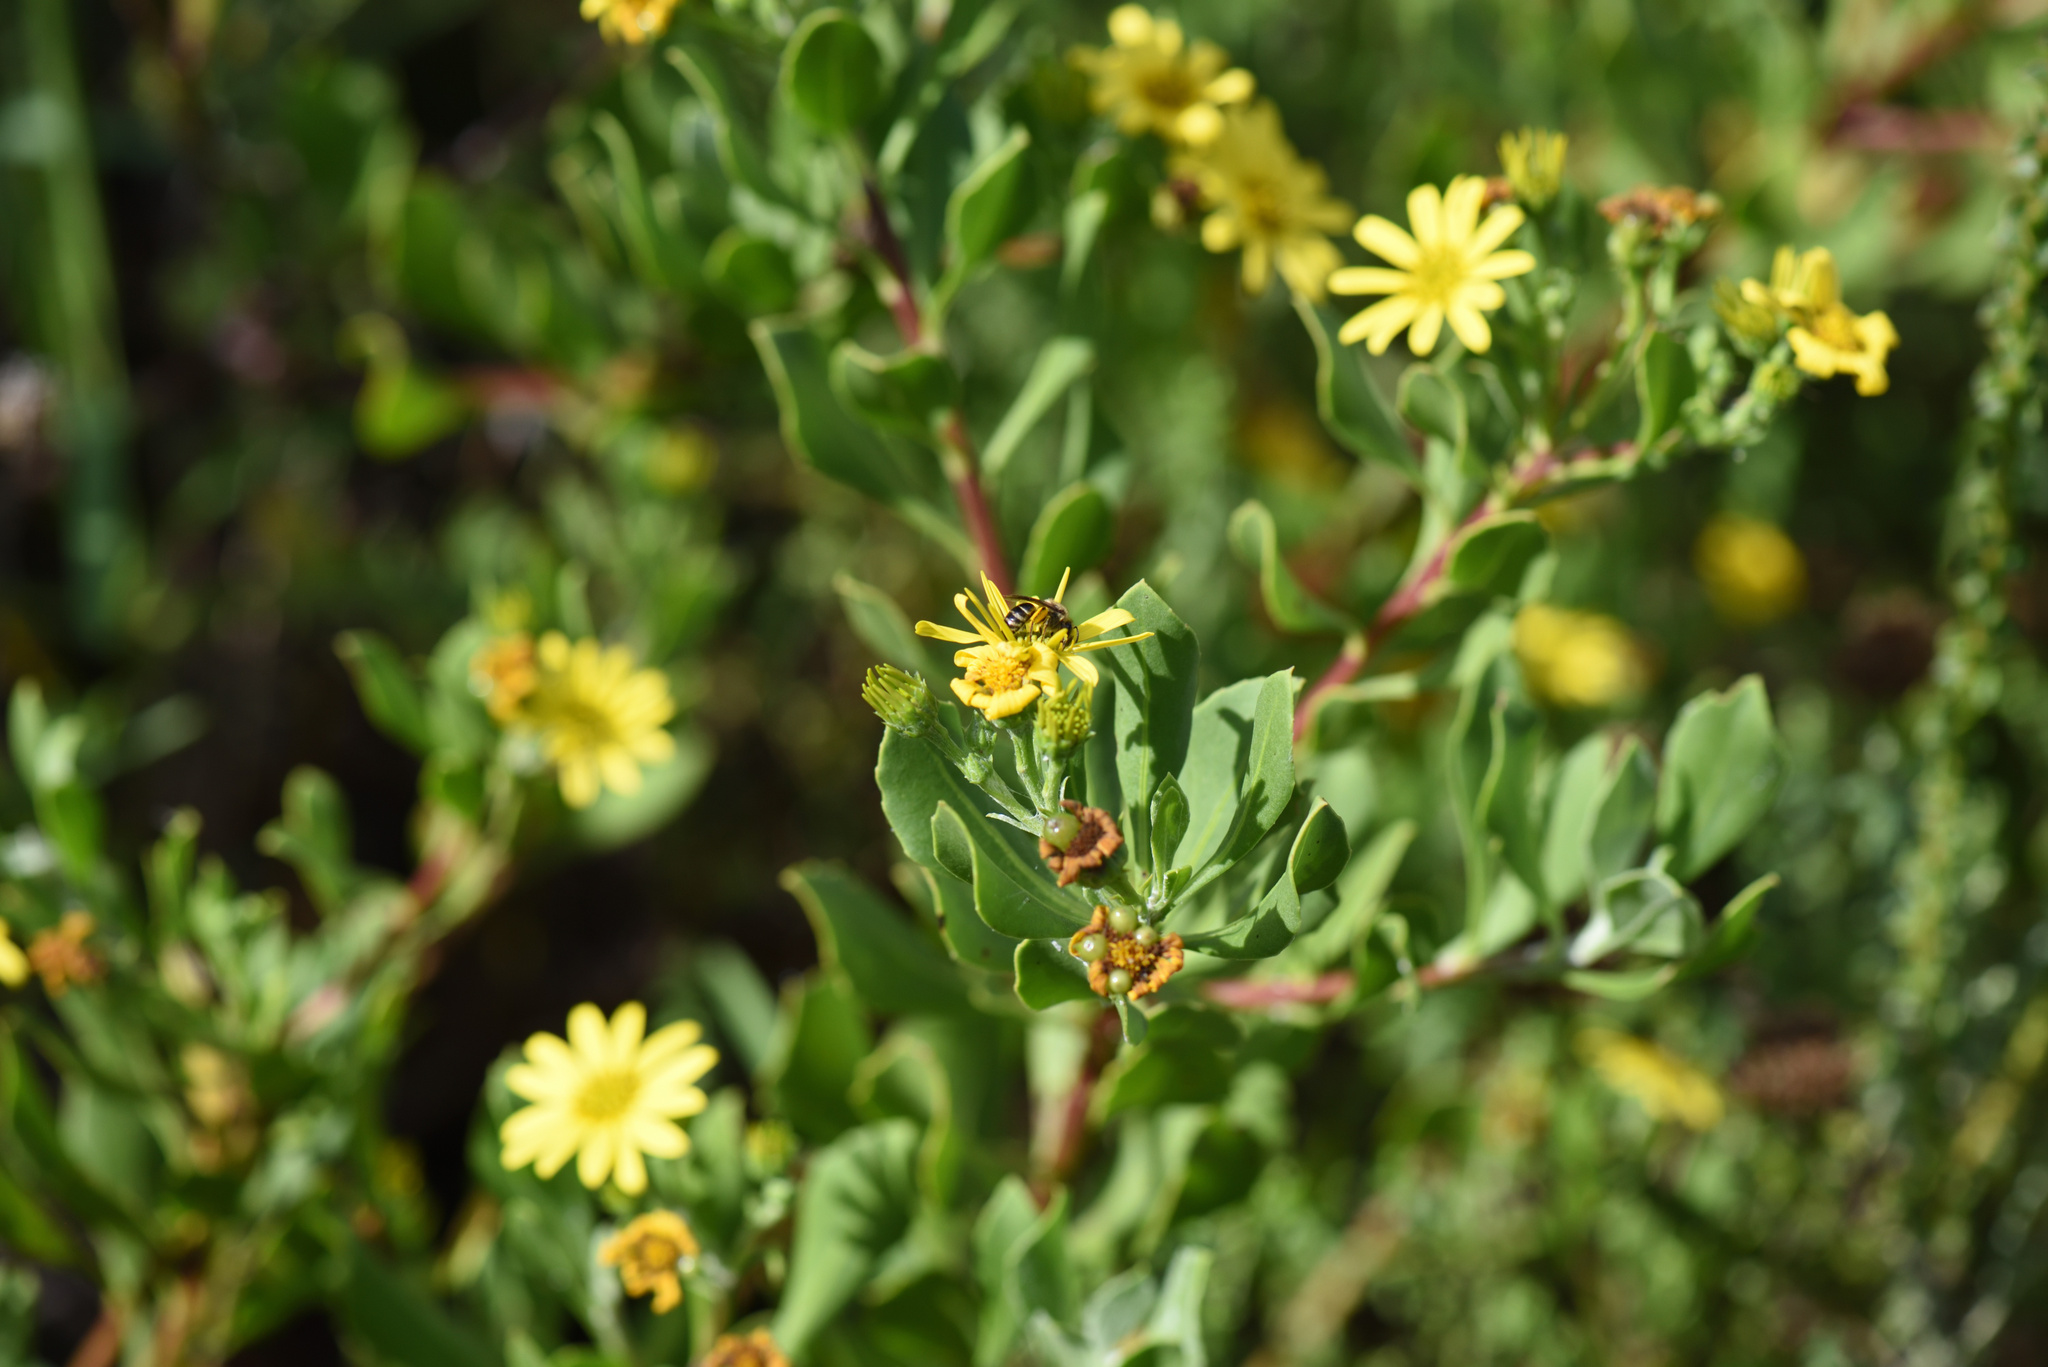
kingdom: Plantae
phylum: Tracheophyta
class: Magnoliopsida
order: Asterales
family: Asteraceae
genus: Osteospermum
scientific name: Osteospermum moniliferum
